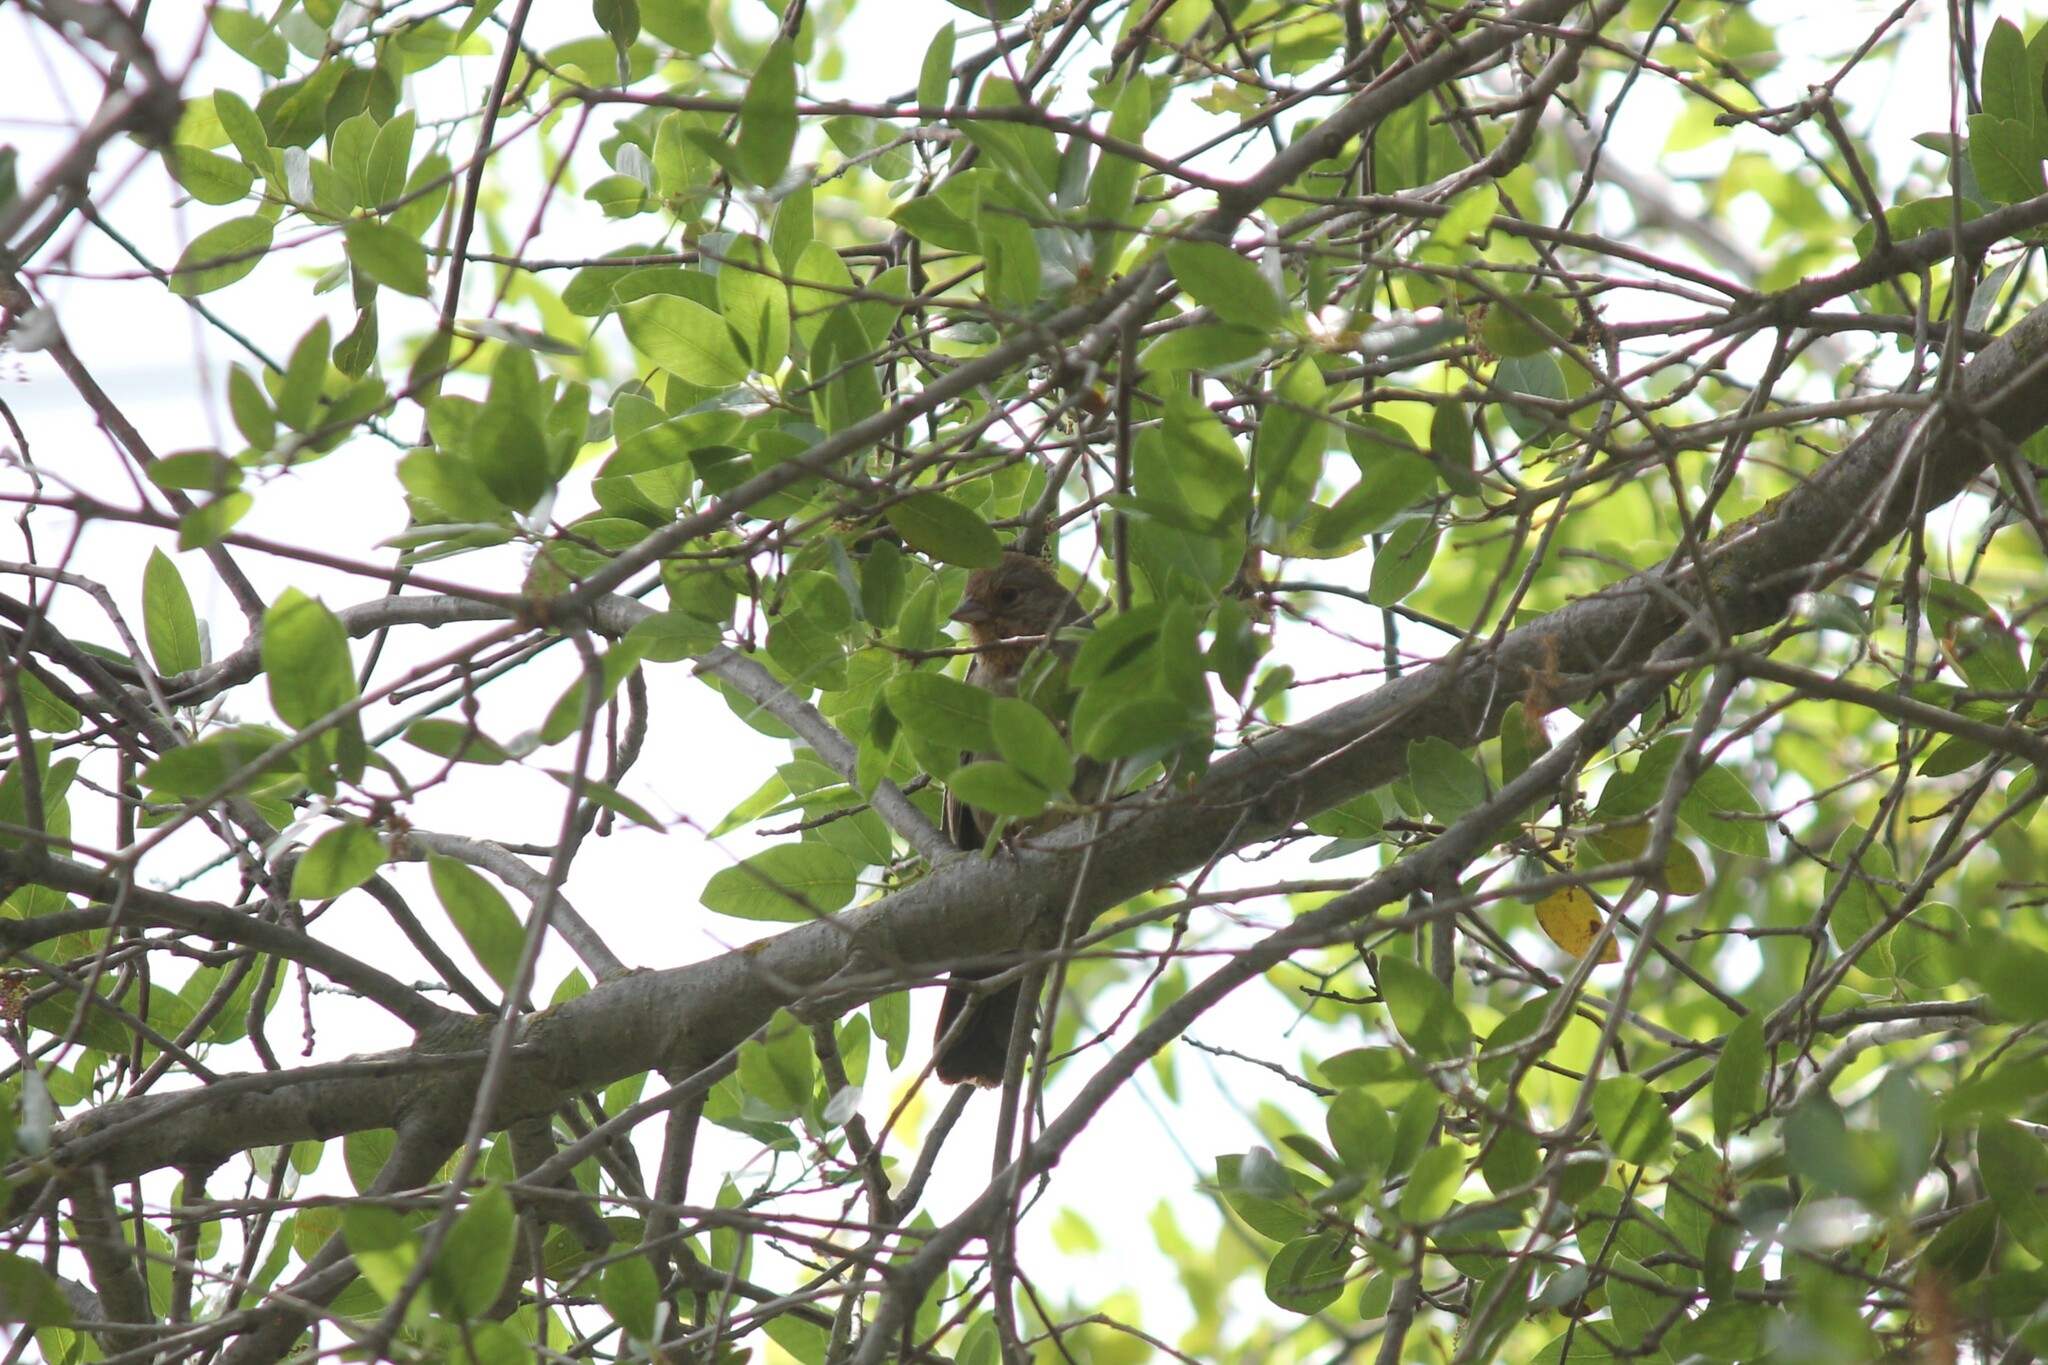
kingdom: Animalia
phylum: Chordata
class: Aves
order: Passeriformes
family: Passerellidae
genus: Melozone
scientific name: Melozone crissalis
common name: California towhee
